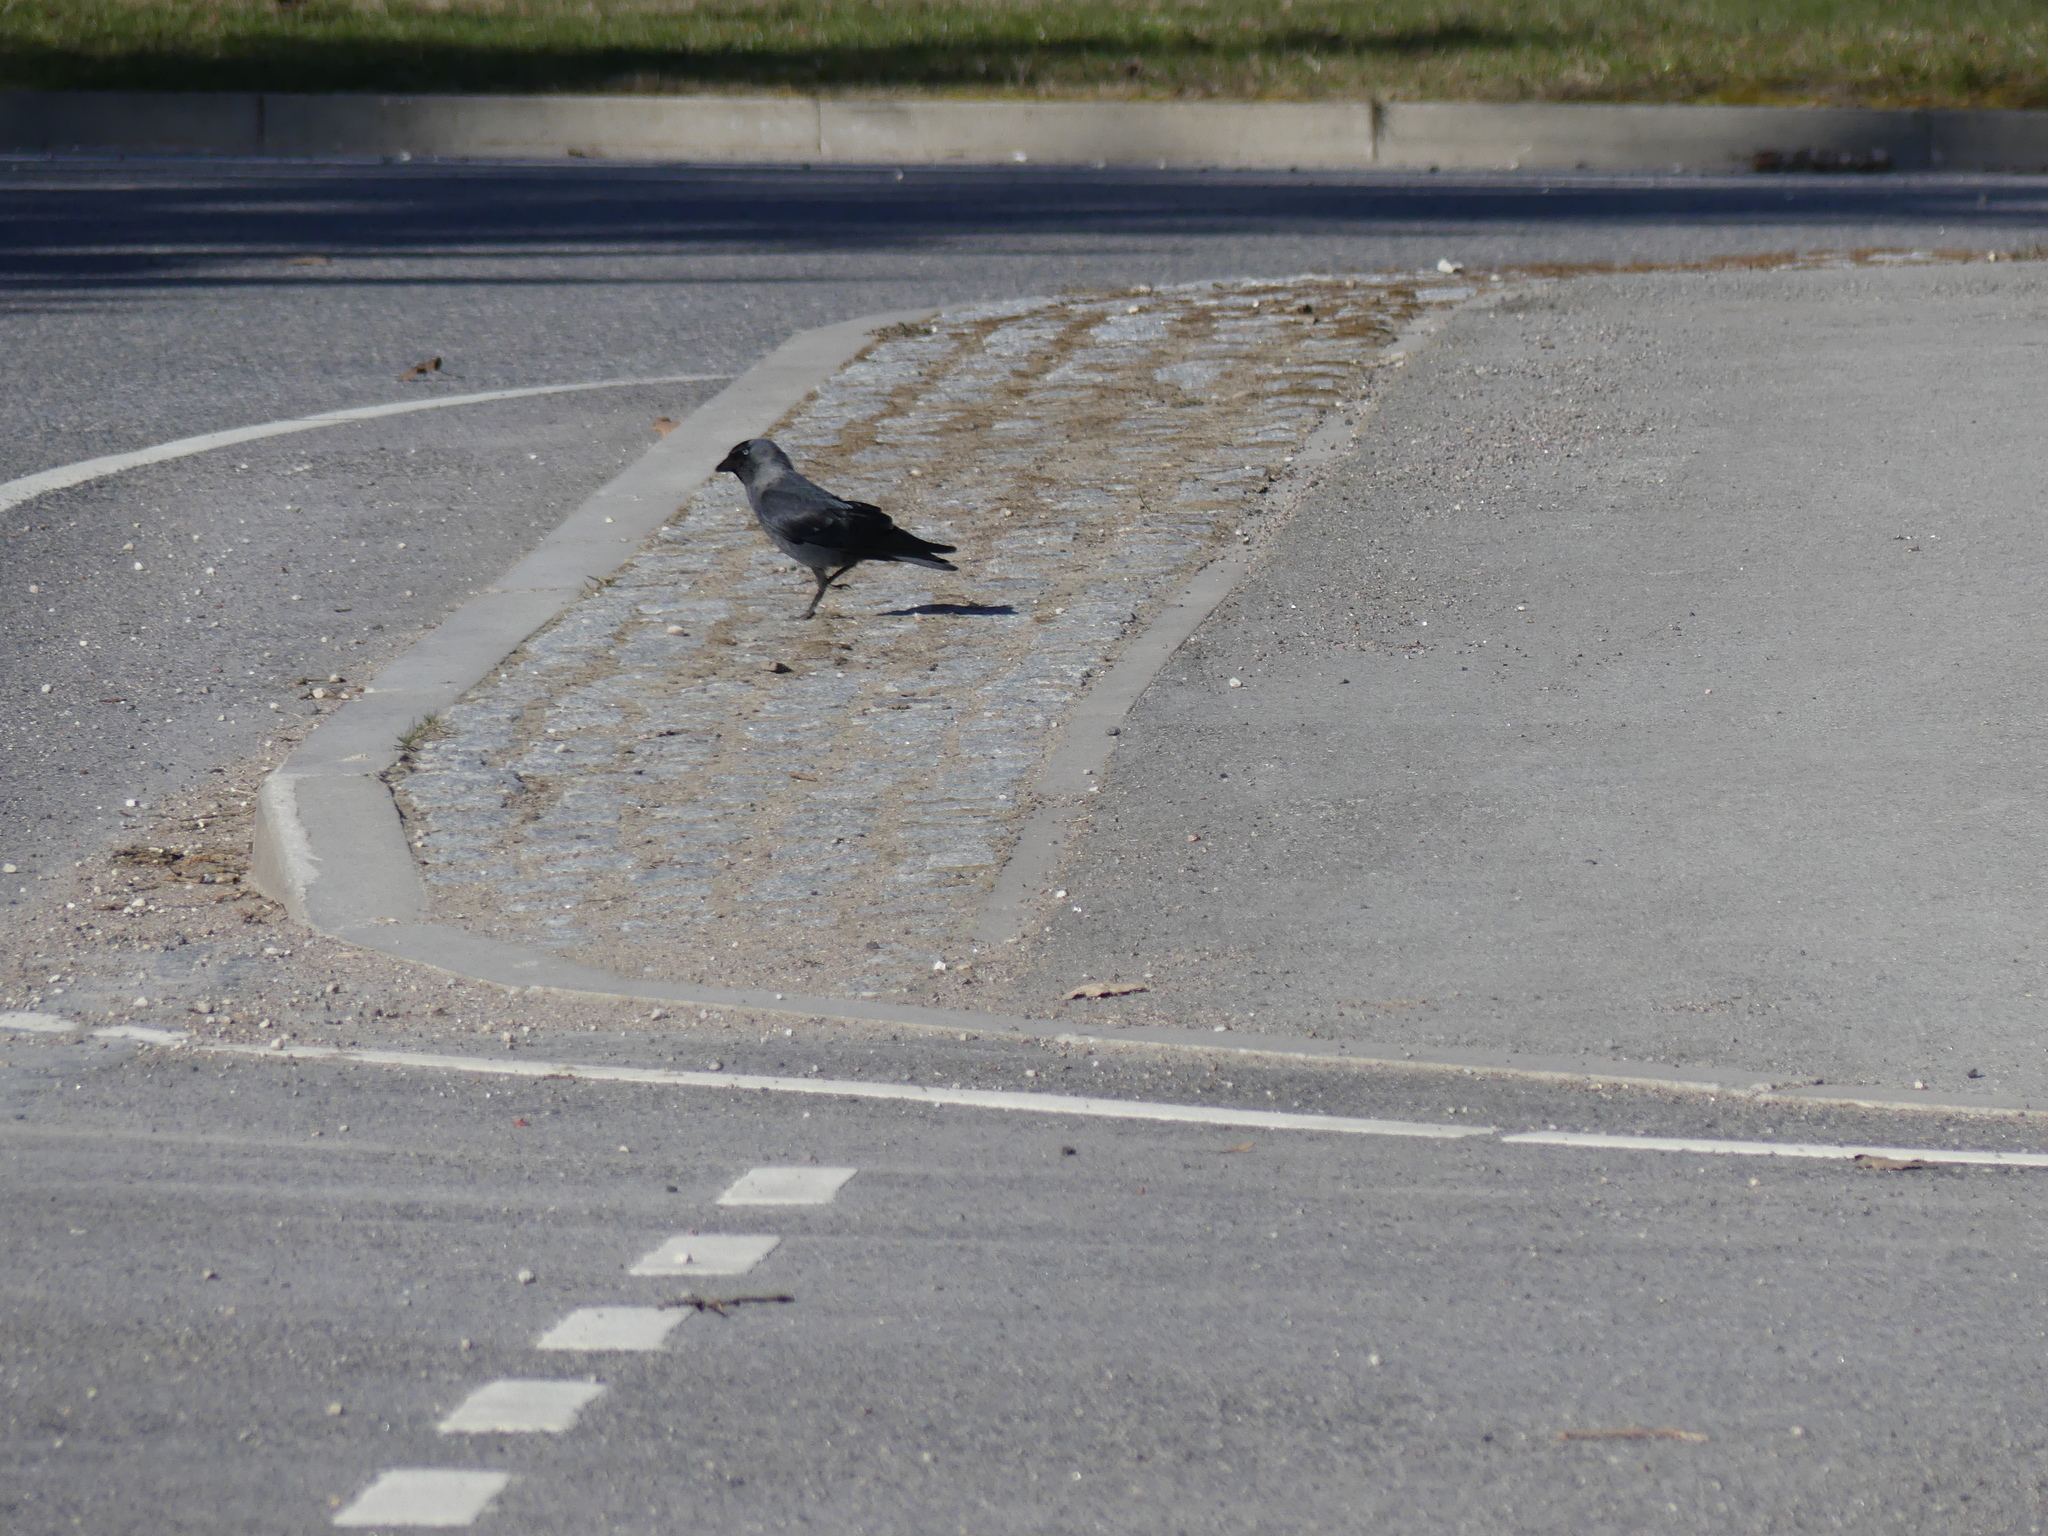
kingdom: Animalia
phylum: Chordata
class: Aves
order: Passeriformes
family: Corvidae
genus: Coloeus
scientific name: Coloeus monedula
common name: Western jackdaw
